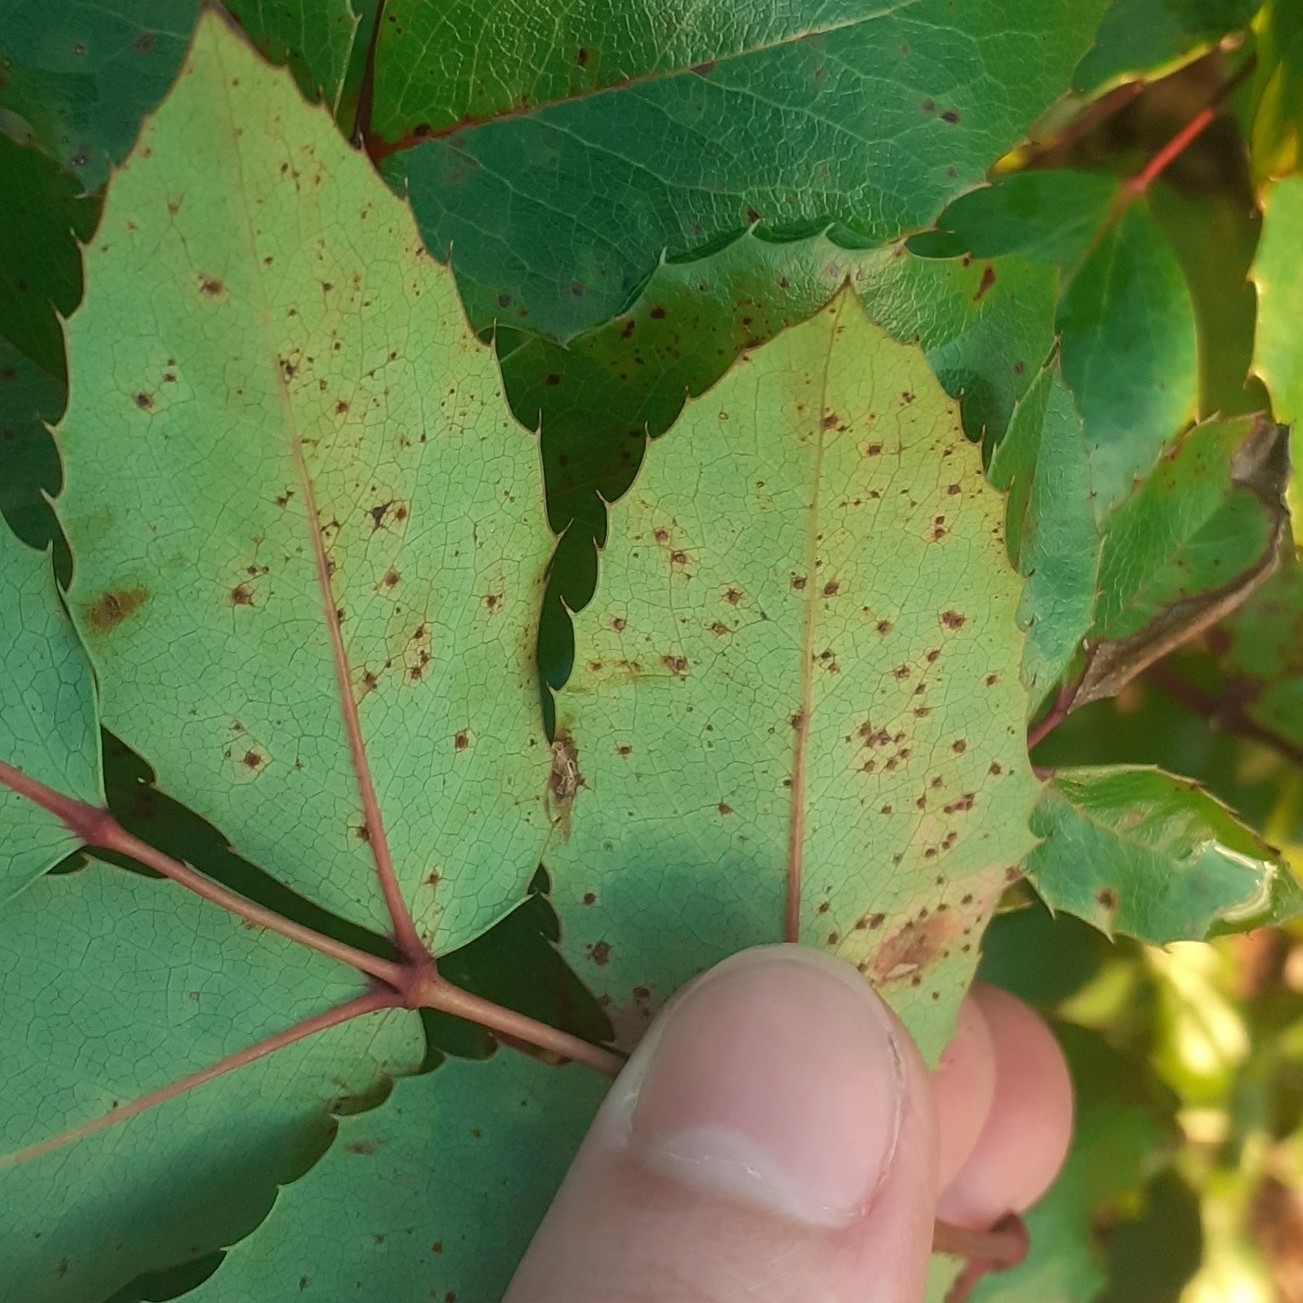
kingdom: Fungi
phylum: Basidiomycota
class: Pucciniomycetes
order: Pucciniales
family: Pucciniaceae
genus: Cumminsiella
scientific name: Cumminsiella mirabilissima
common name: Mahonia rust
